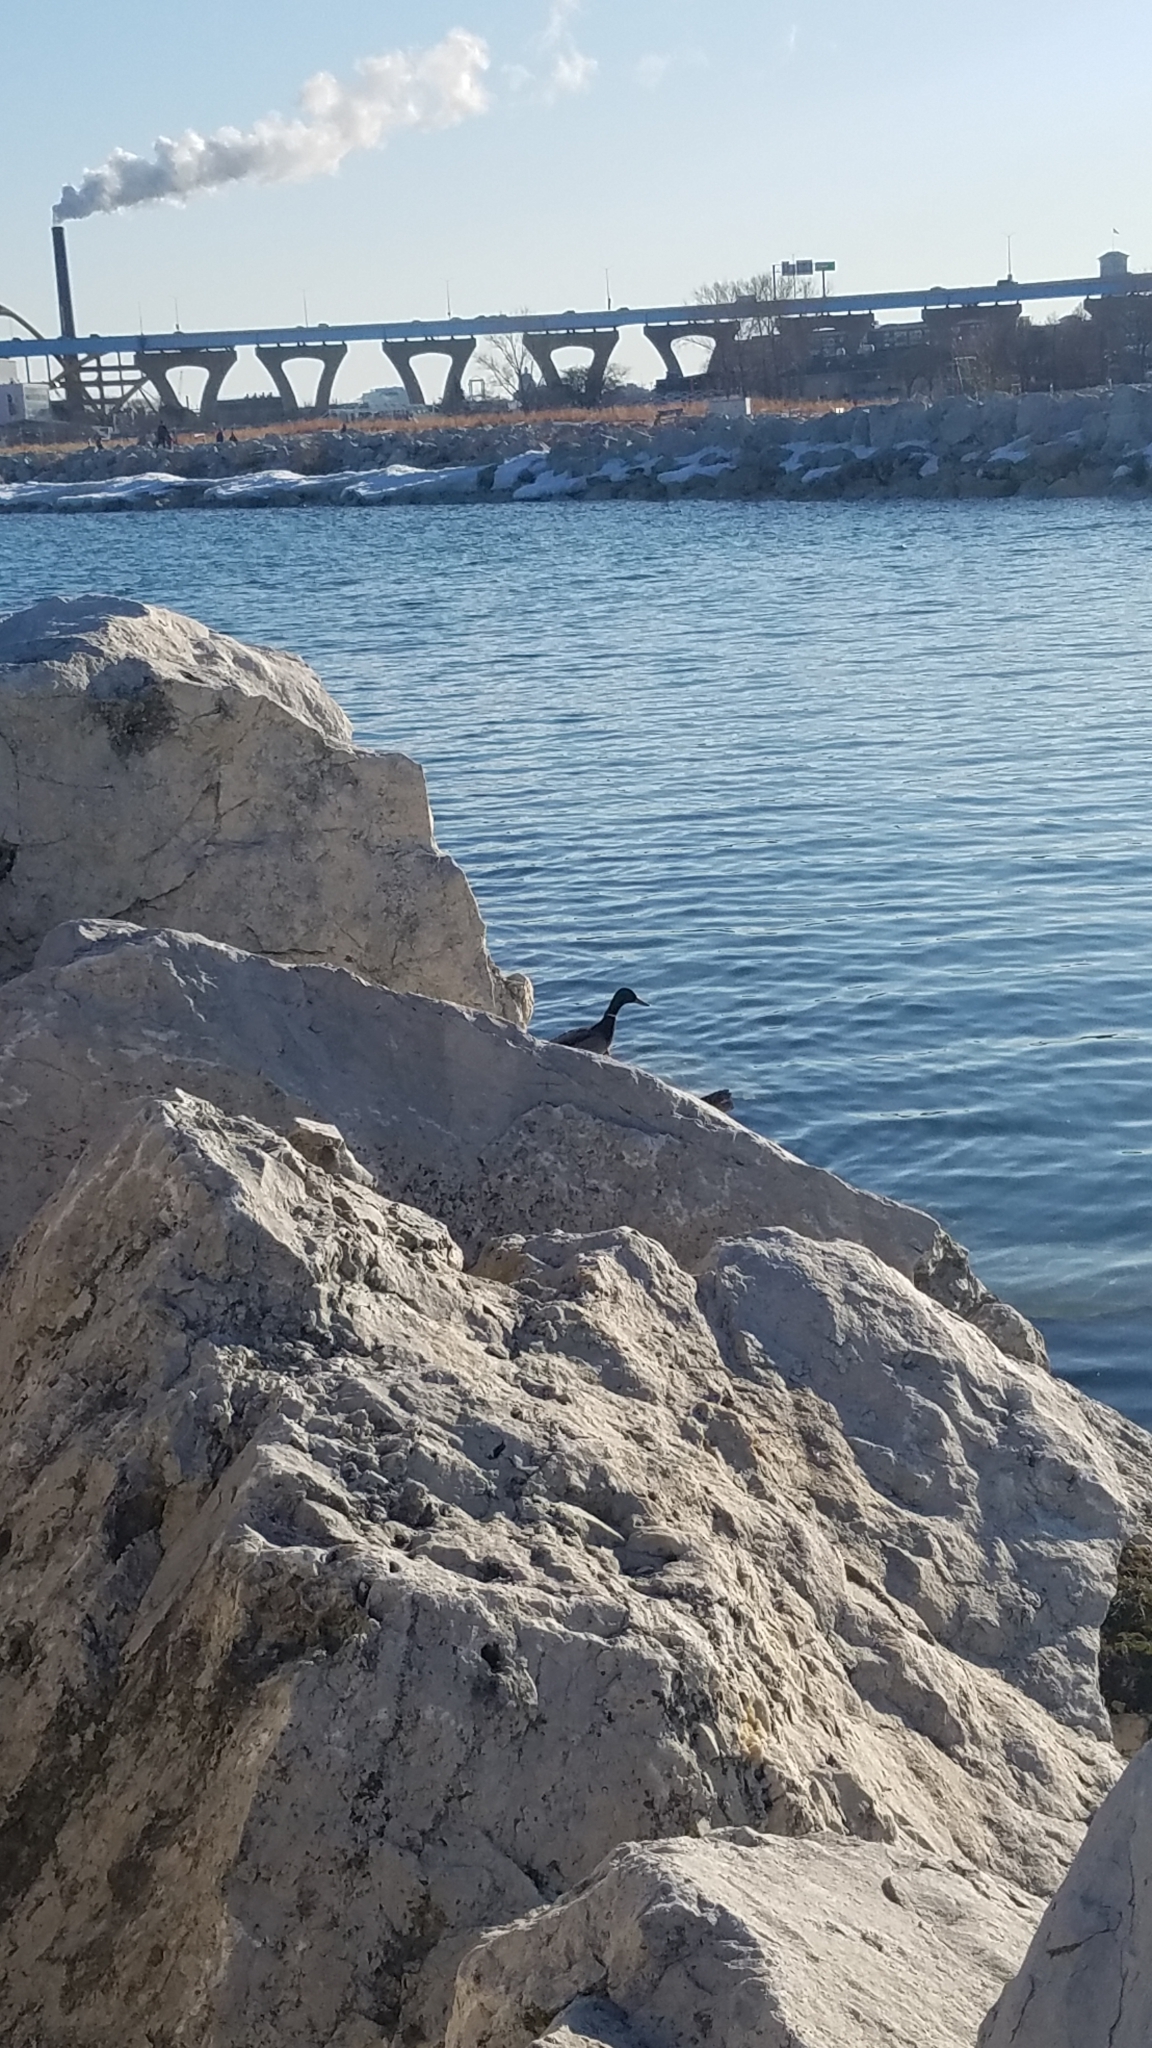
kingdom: Animalia
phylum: Chordata
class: Aves
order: Anseriformes
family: Anatidae
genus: Anas
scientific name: Anas platyrhynchos
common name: Mallard
